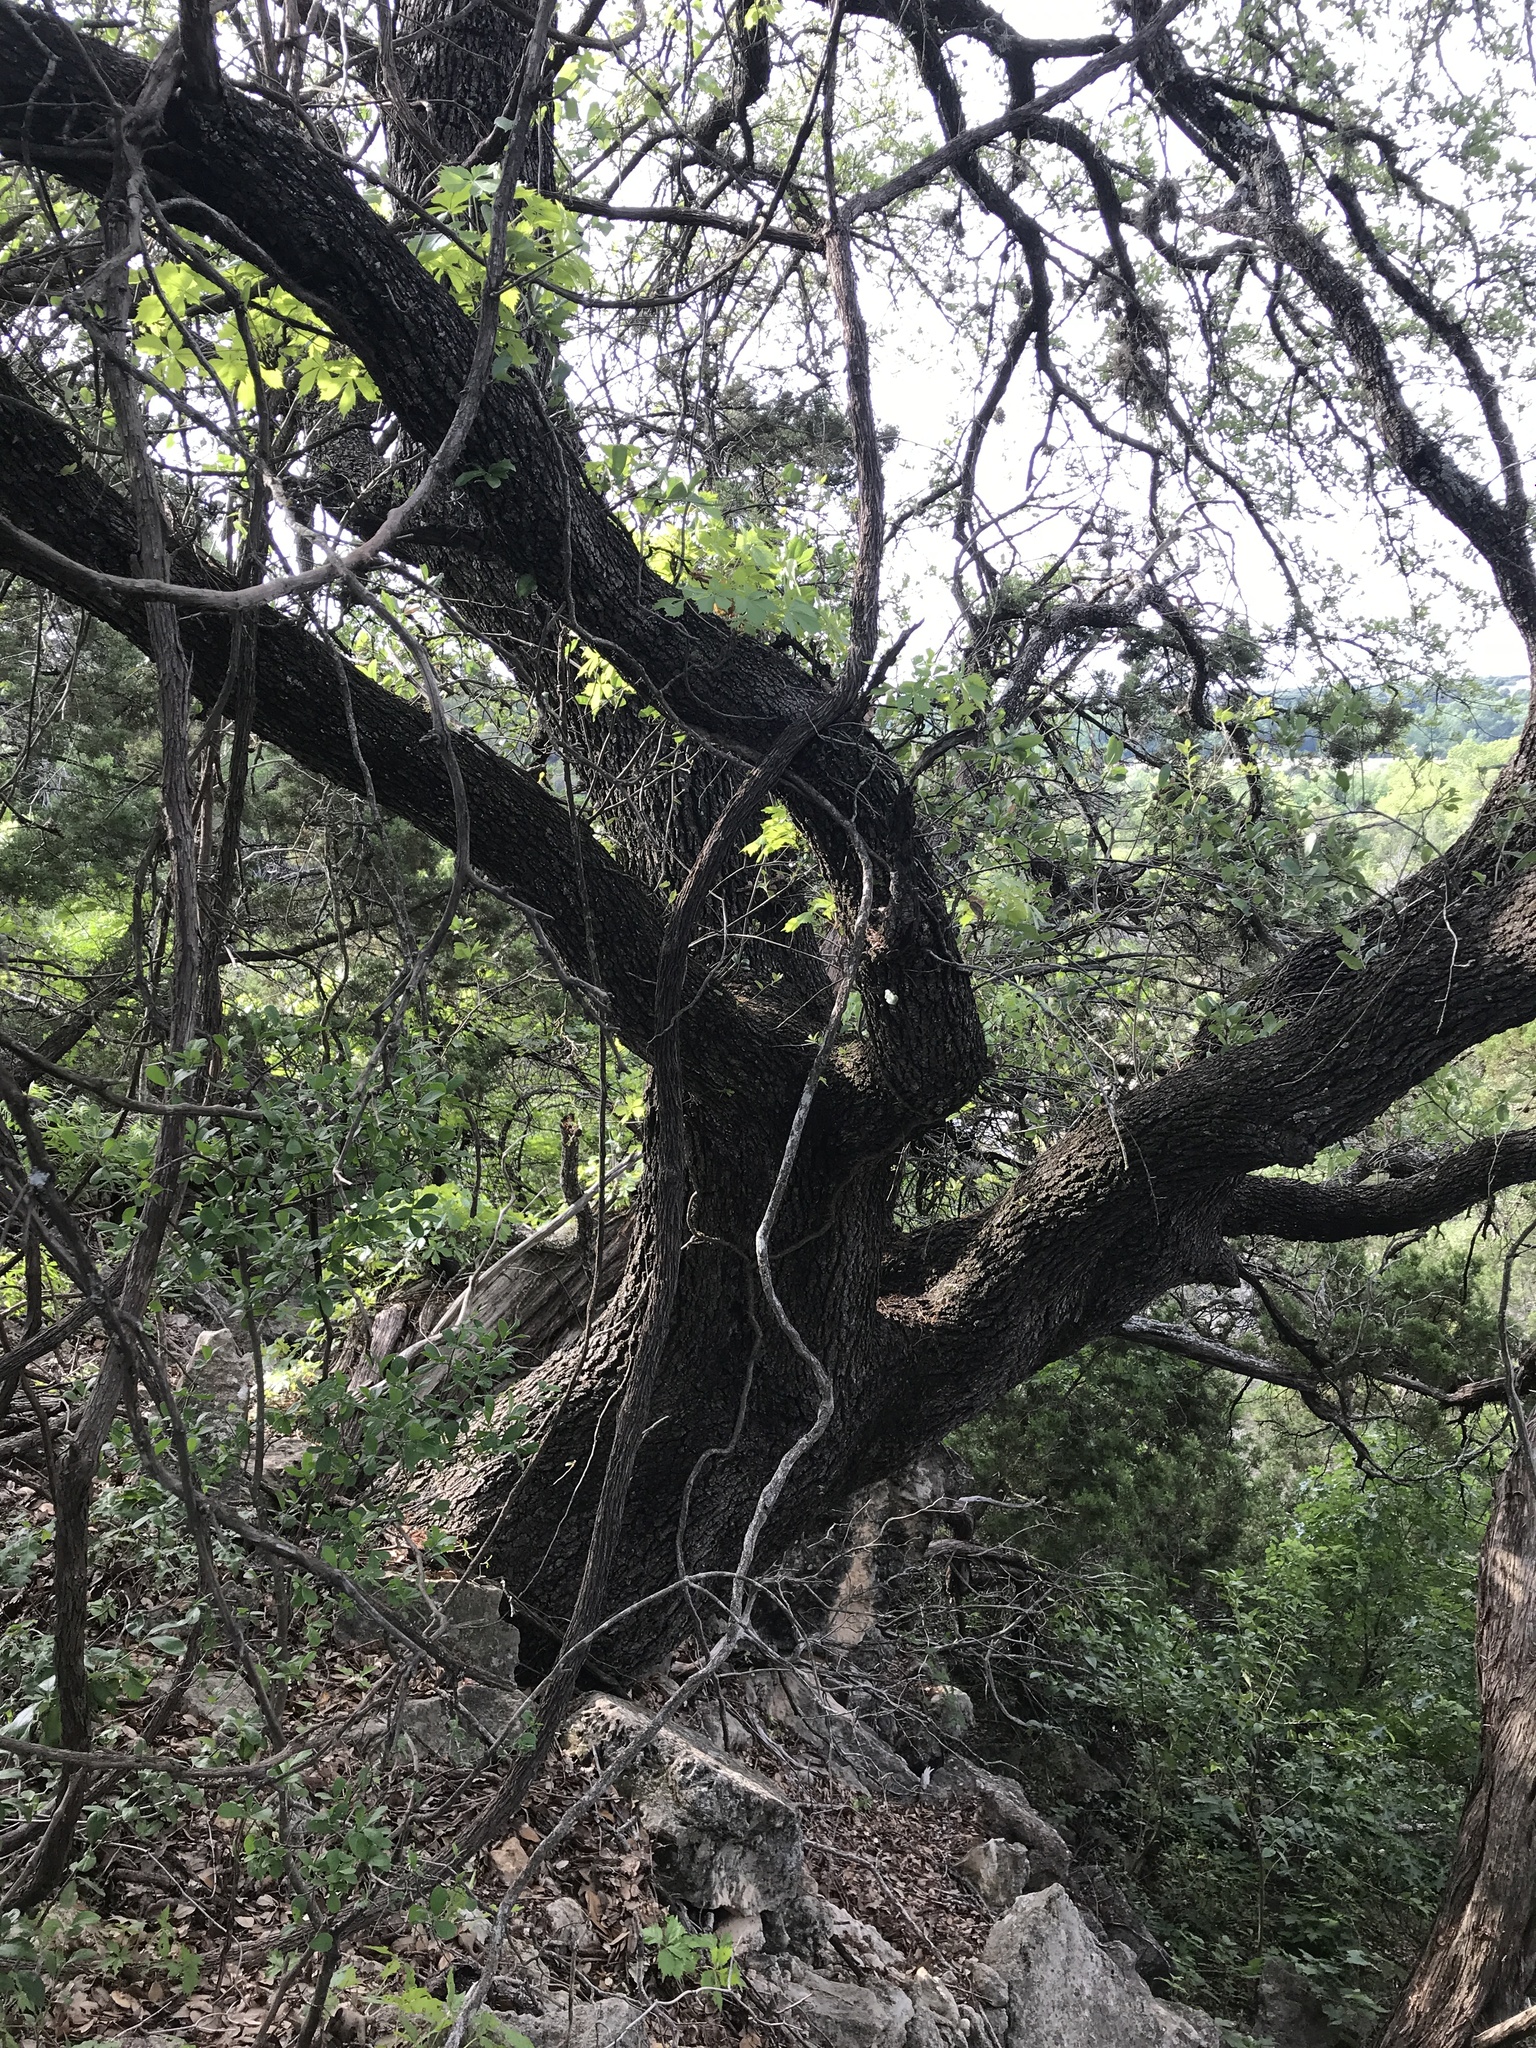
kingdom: Plantae
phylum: Tracheophyta
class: Magnoliopsida
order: Fagales
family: Fagaceae
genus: Quercus
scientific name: Quercus fusiformis
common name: Texas live oak
